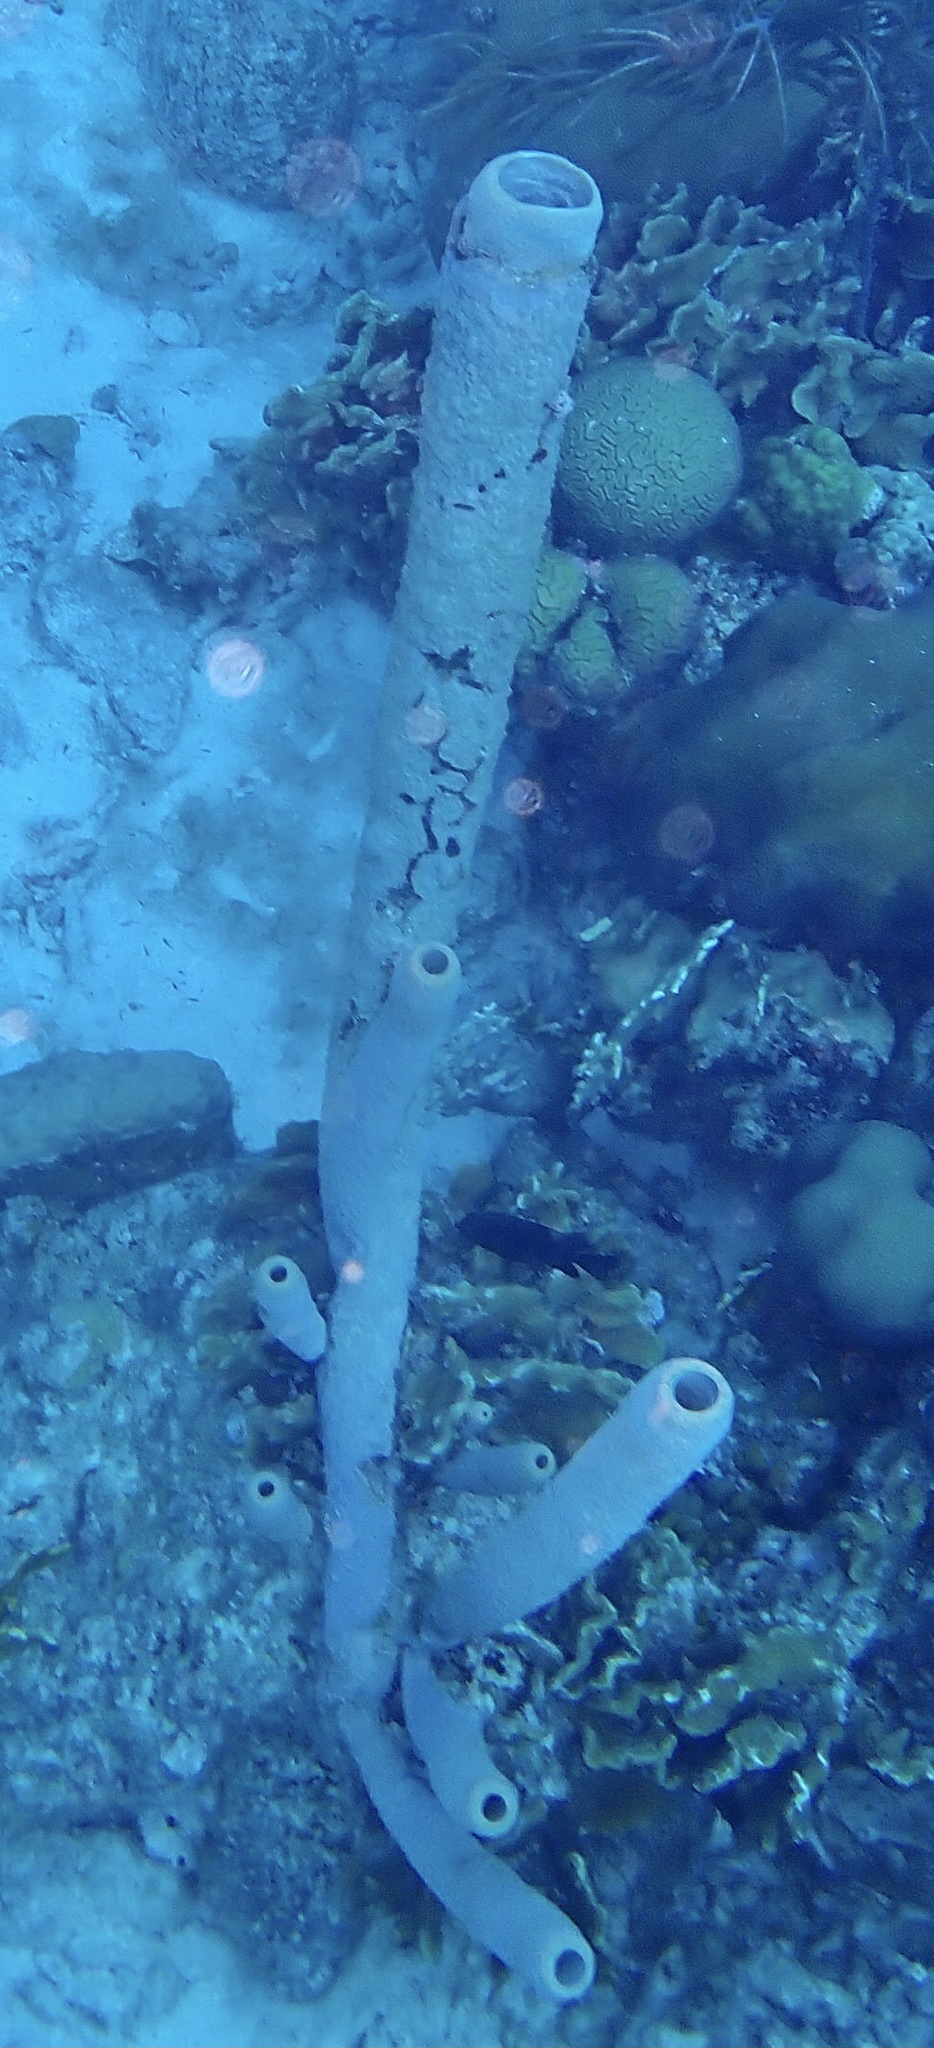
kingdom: Animalia
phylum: Porifera
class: Demospongiae
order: Verongiida
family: Aplysinidae
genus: Aplysina
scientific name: Aplysina archeri
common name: Stove-pipe sponge
